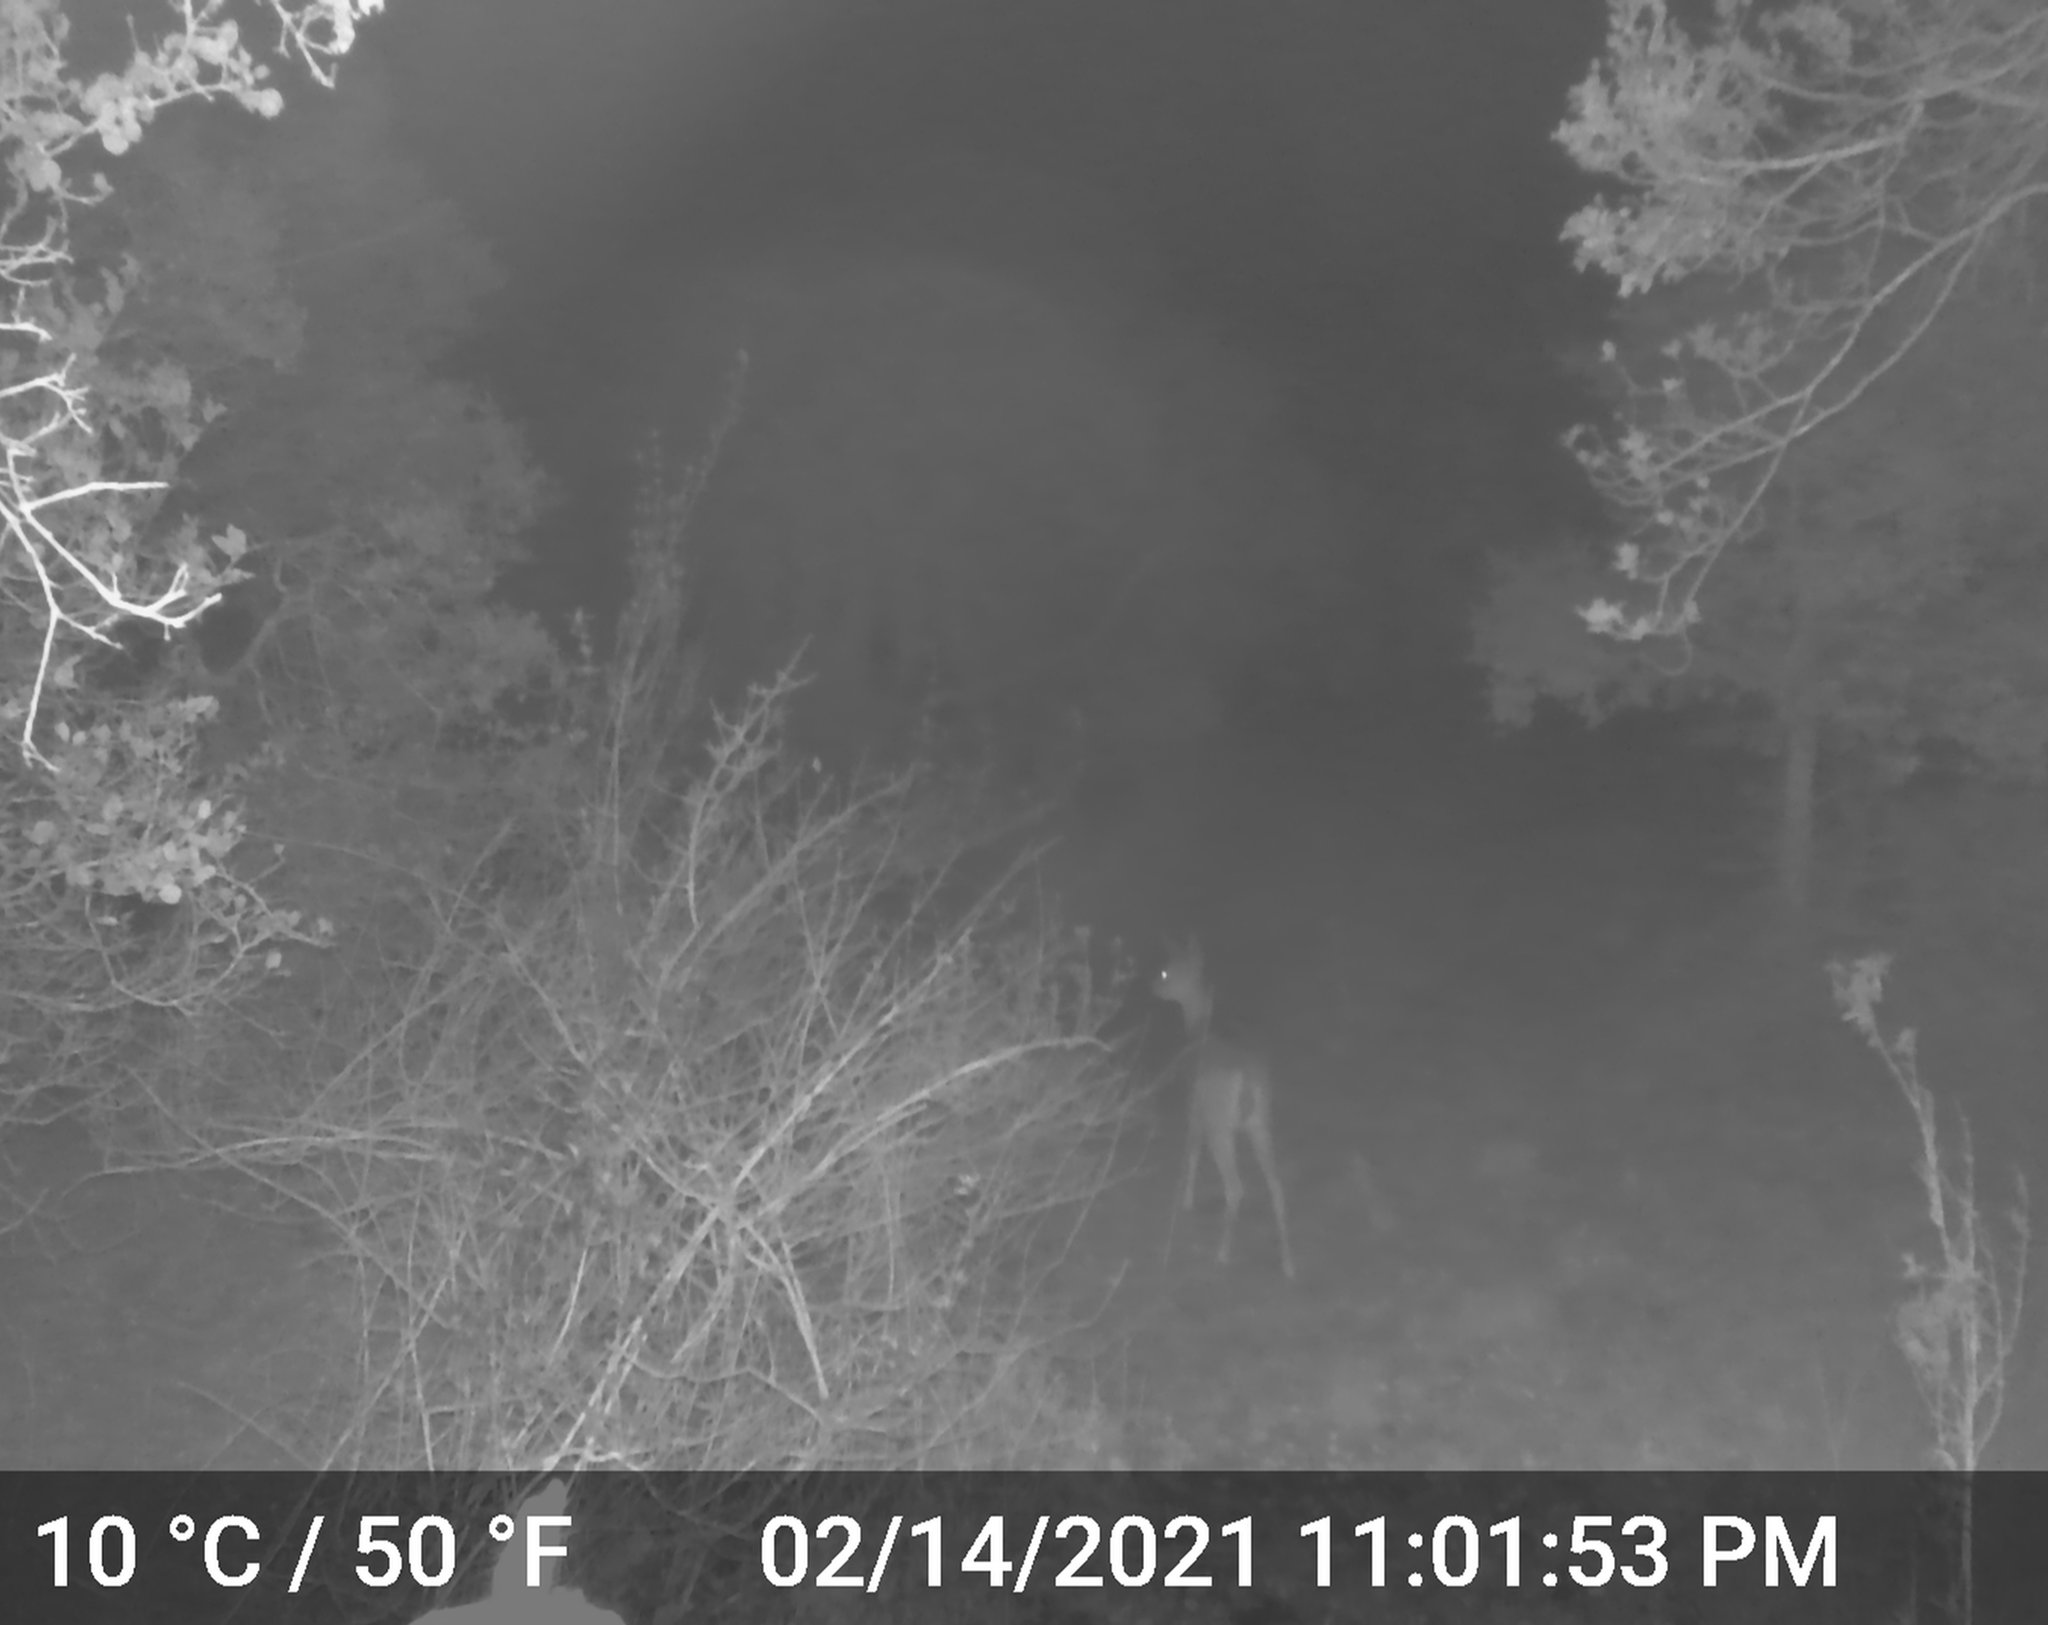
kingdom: Animalia
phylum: Chordata
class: Mammalia
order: Artiodactyla
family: Cervidae
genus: Odocoileus
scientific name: Odocoileus hemionus
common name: Mule deer
